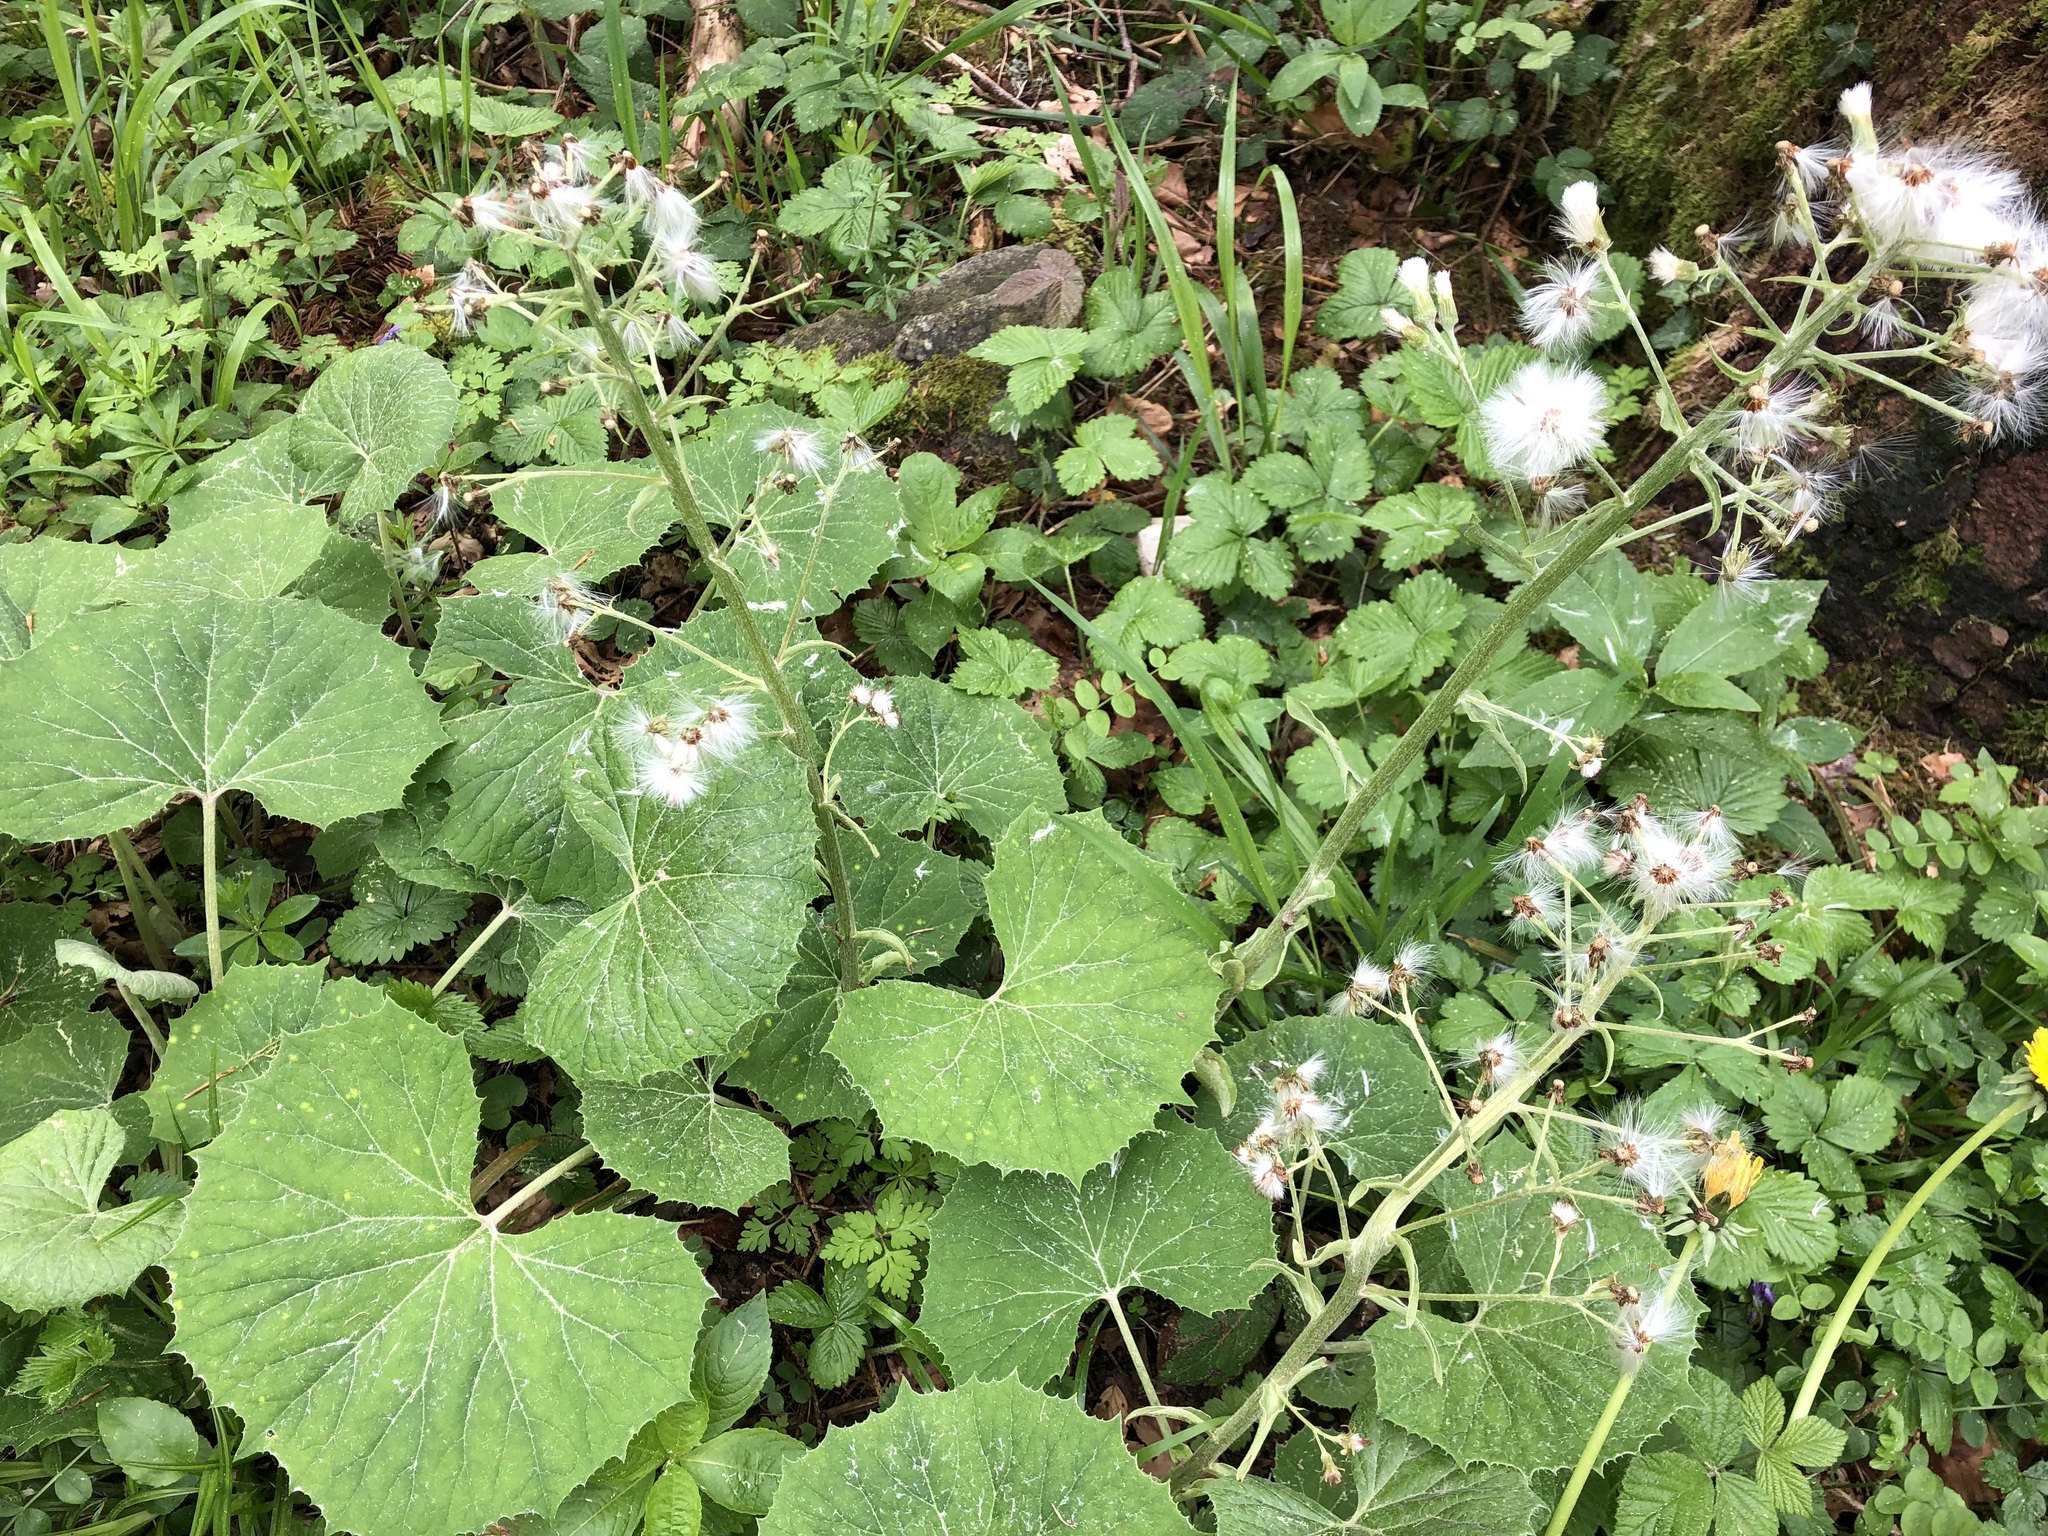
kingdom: Plantae
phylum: Tracheophyta
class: Magnoliopsida
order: Asterales
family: Asteraceae
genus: Petasites
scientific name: Petasites albus
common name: White butterbur
